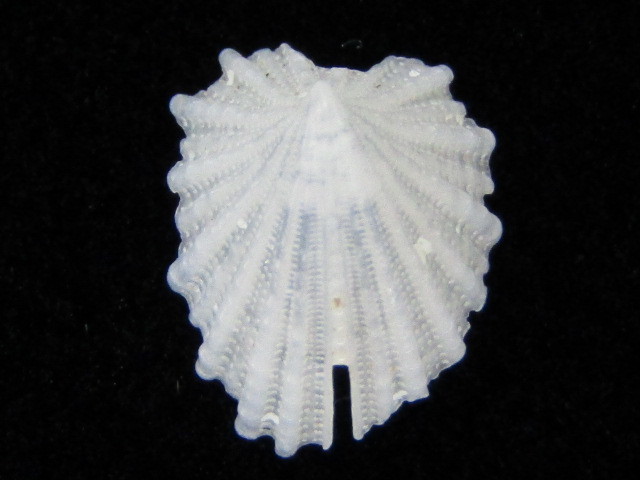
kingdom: Animalia
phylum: Mollusca
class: Gastropoda
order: Lepetellida
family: Fissurellidae
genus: Emarginula
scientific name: Emarginula crassicostata
